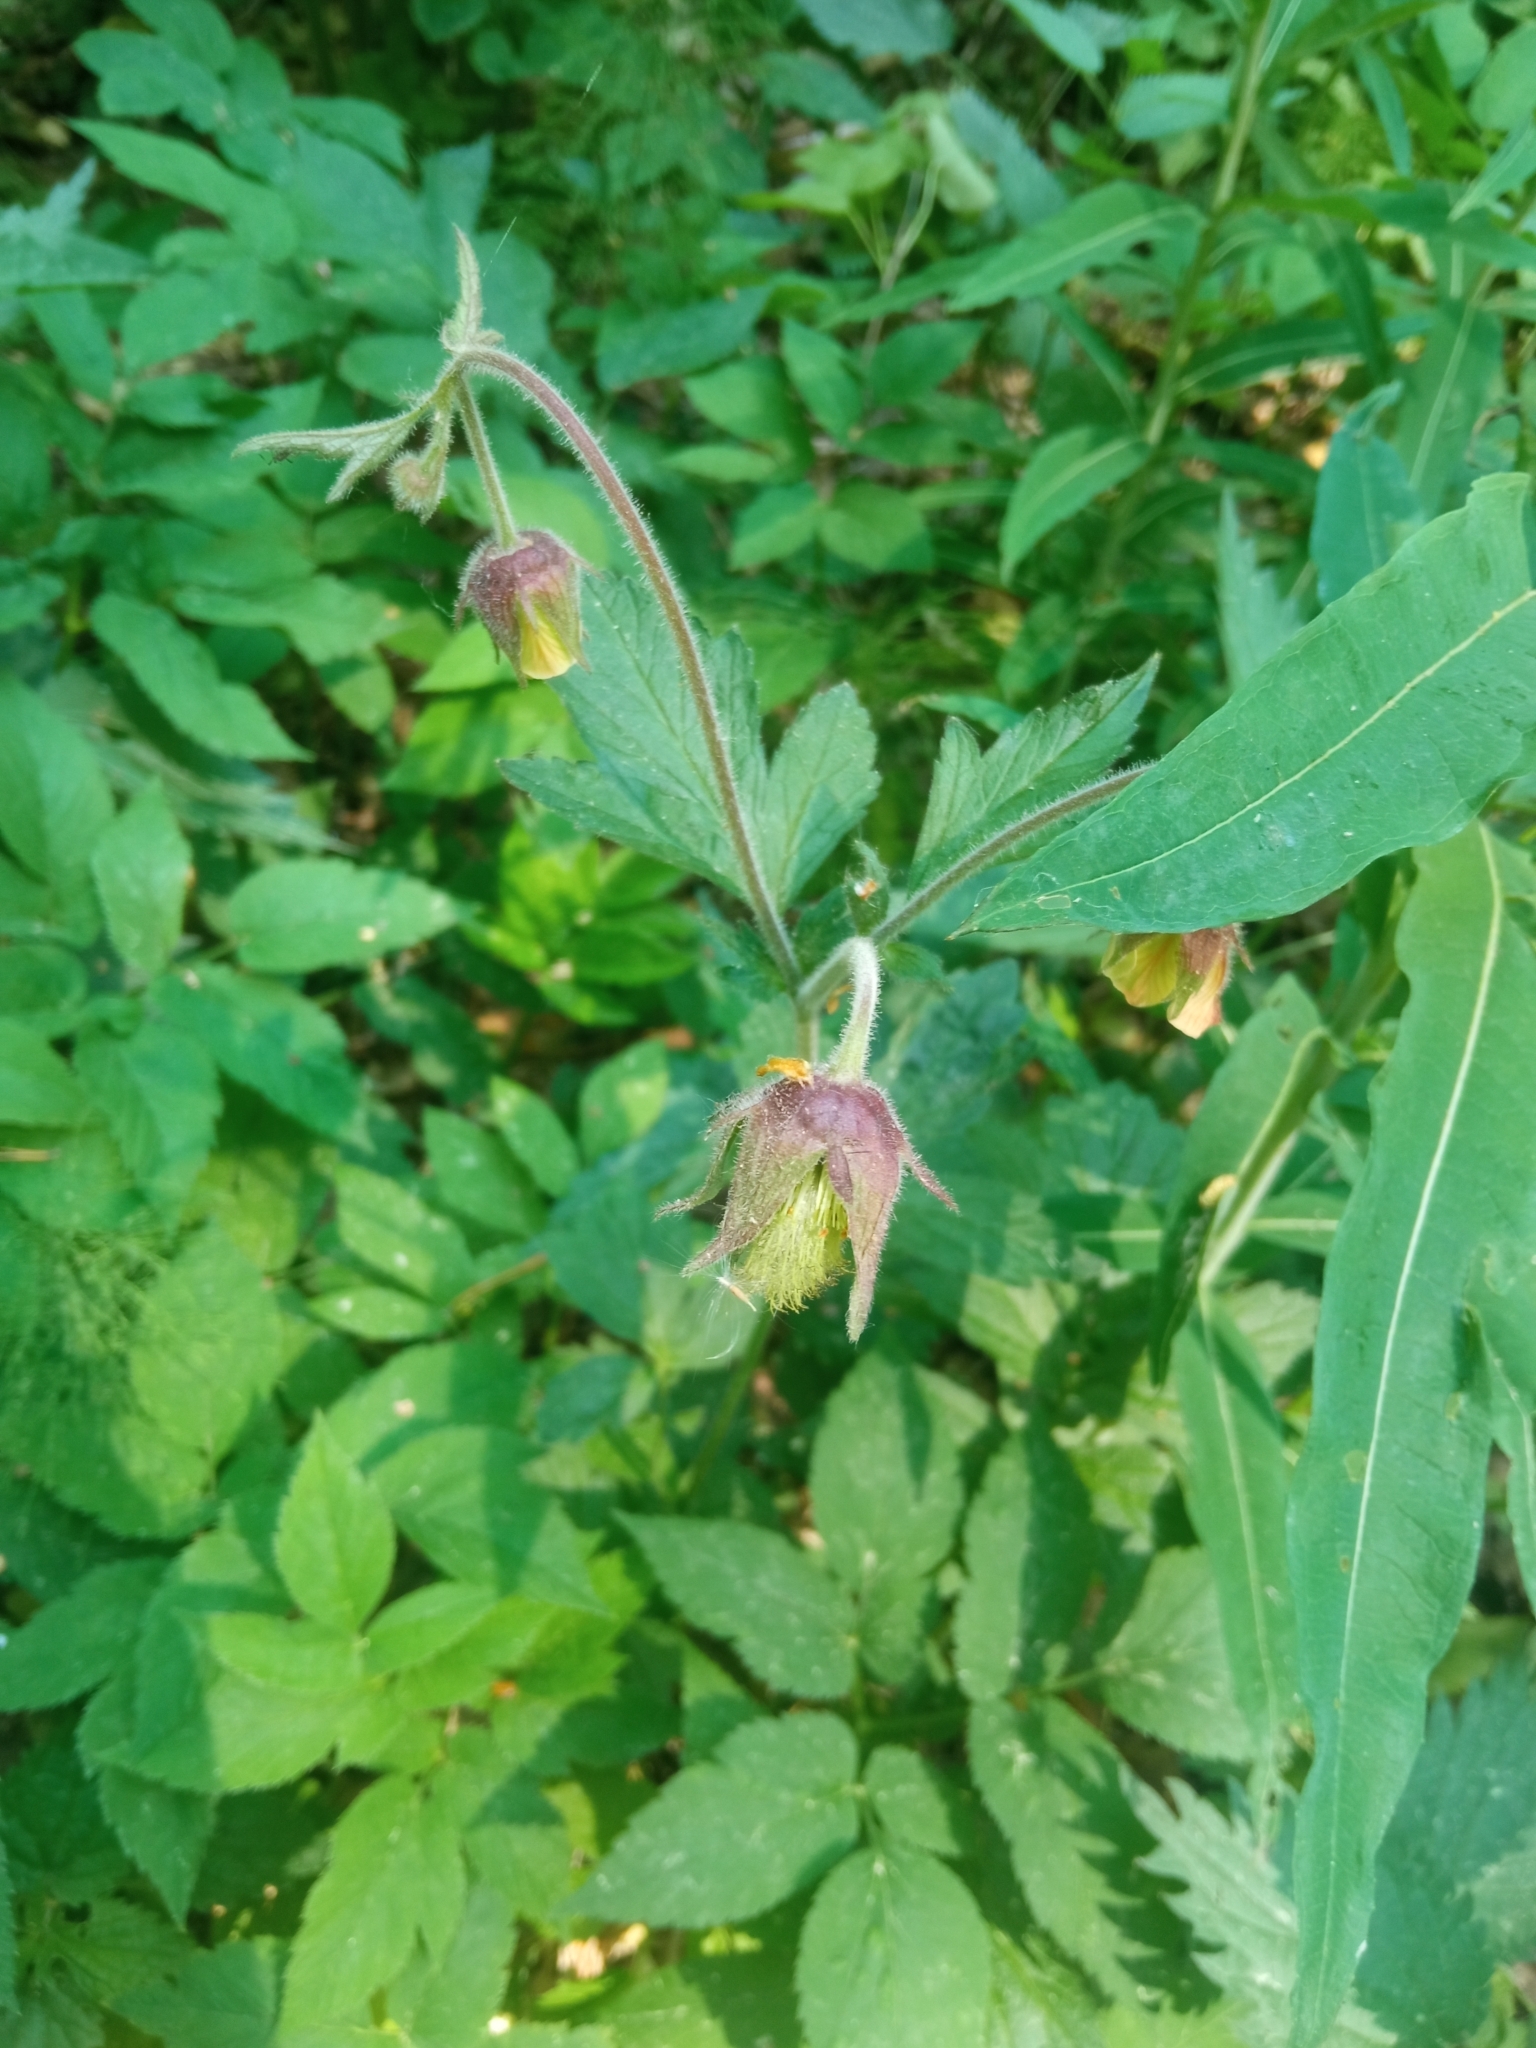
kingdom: Plantae
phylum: Tracheophyta
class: Magnoliopsida
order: Rosales
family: Rosaceae
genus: Geum
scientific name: Geum rivale
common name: Water avens
